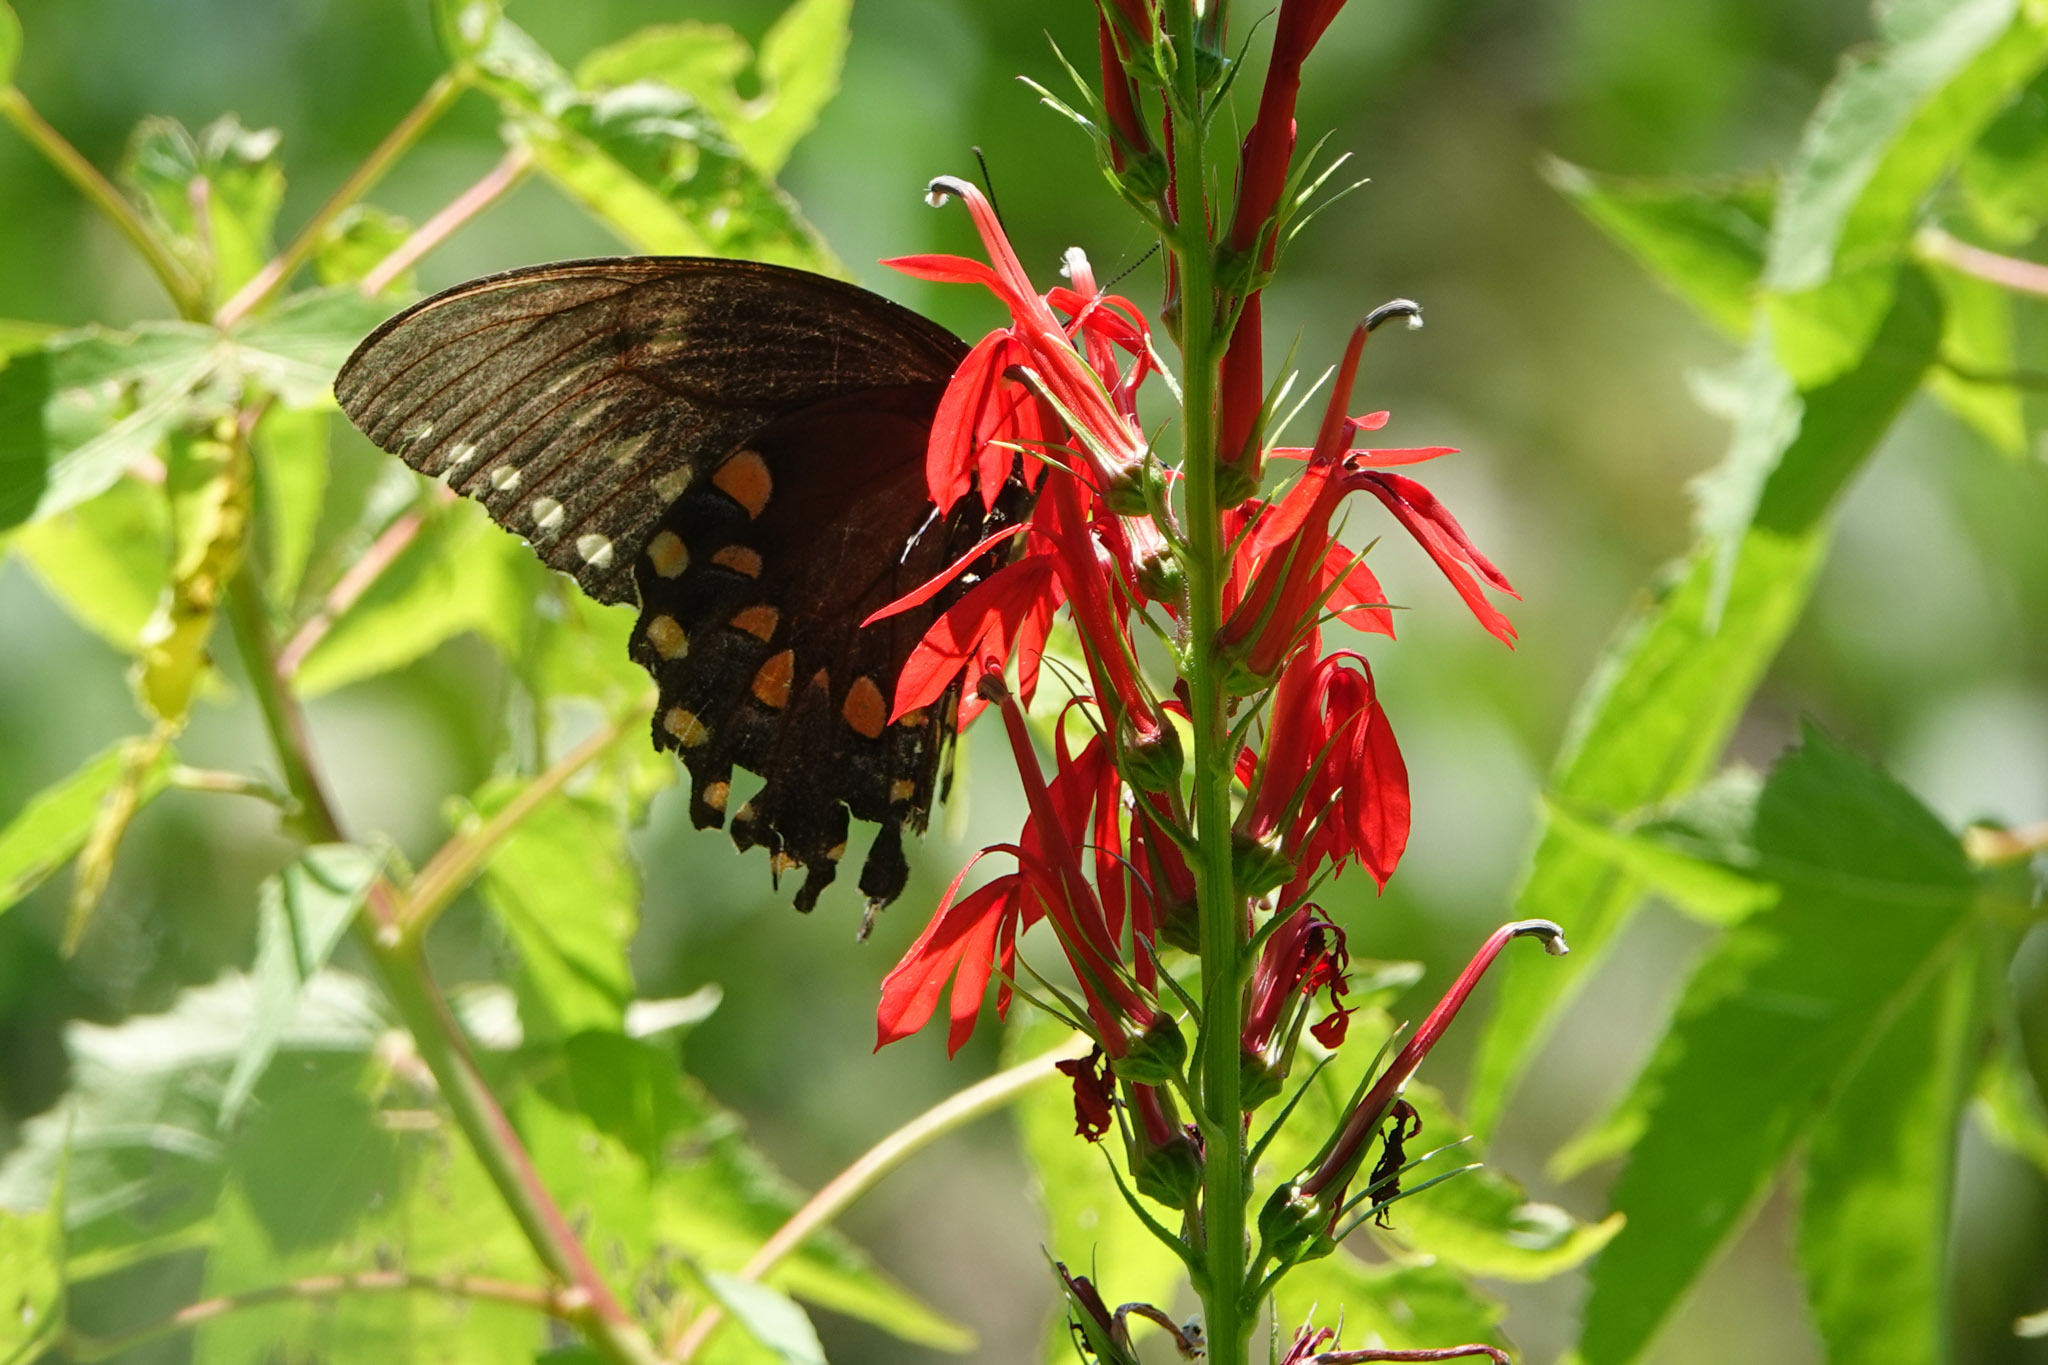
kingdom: Animalia
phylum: Arthropoda
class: Insecta
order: Lepidoptera
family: Papilionidae
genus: Papilio
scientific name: Papilio troilus
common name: Spicebush swallowtail
